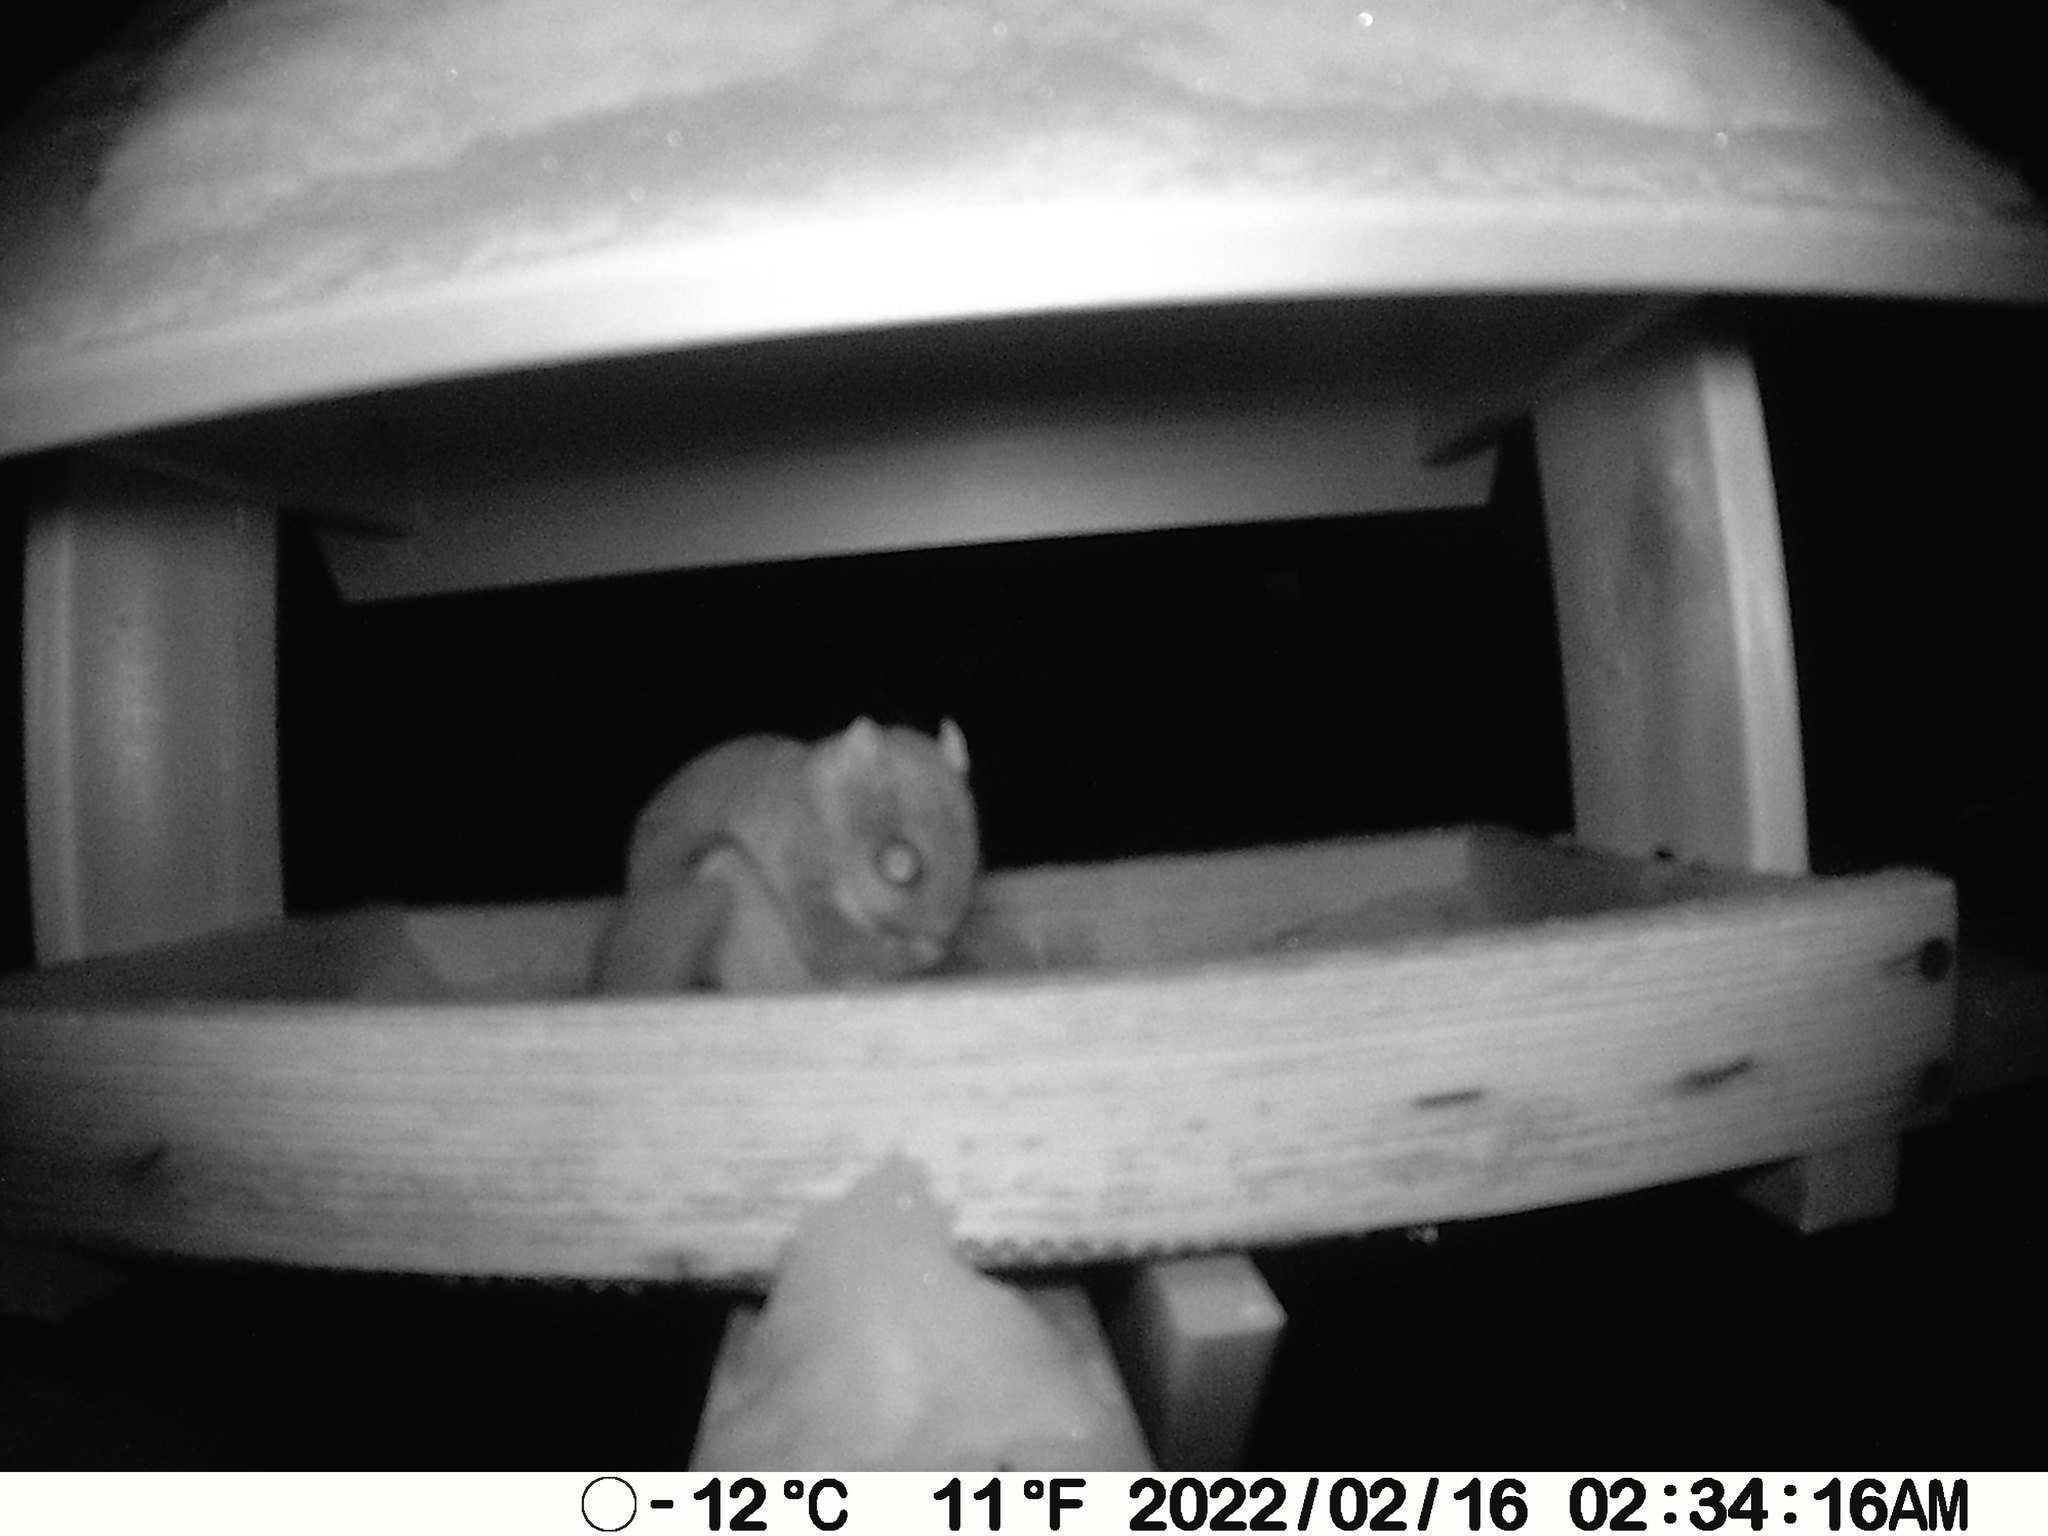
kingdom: Animalia
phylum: Chordata
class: Mammalia
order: Rodentia
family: Sciuridae
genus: Glaucomys
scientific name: Glaucomys sabrinus
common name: Northern flying squirrel
